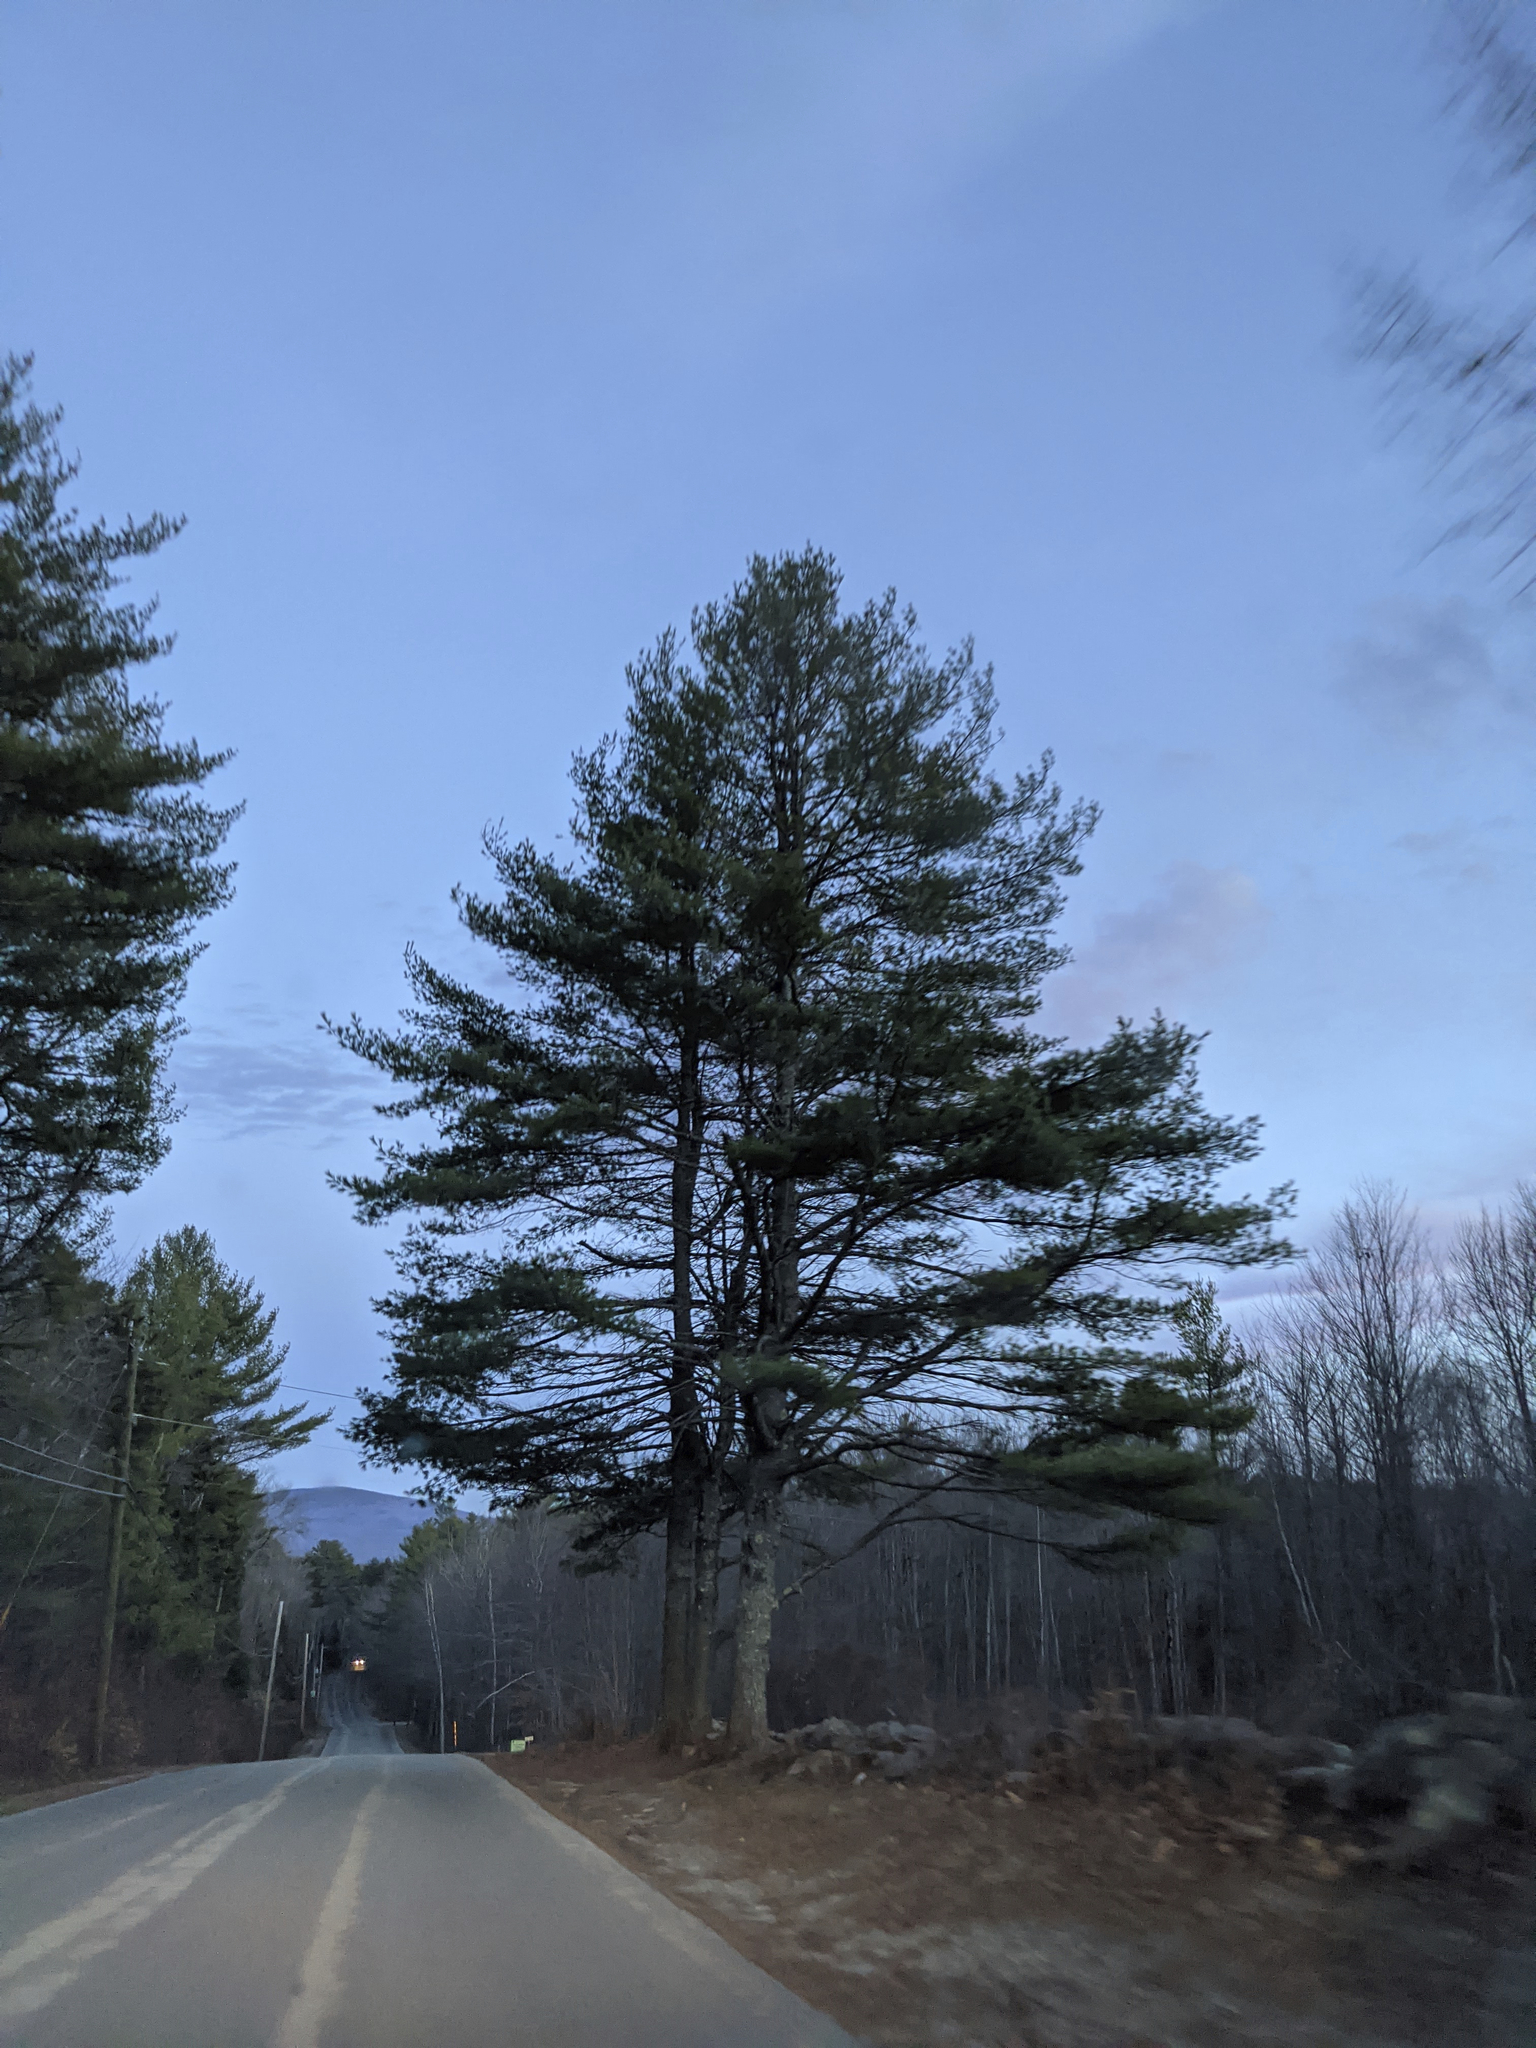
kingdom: Plantae
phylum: Tracheophyta
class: Pinopsida
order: Pinales
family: Pinaceae
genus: Pinus
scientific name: Pinus strobus
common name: Weymouth pine
